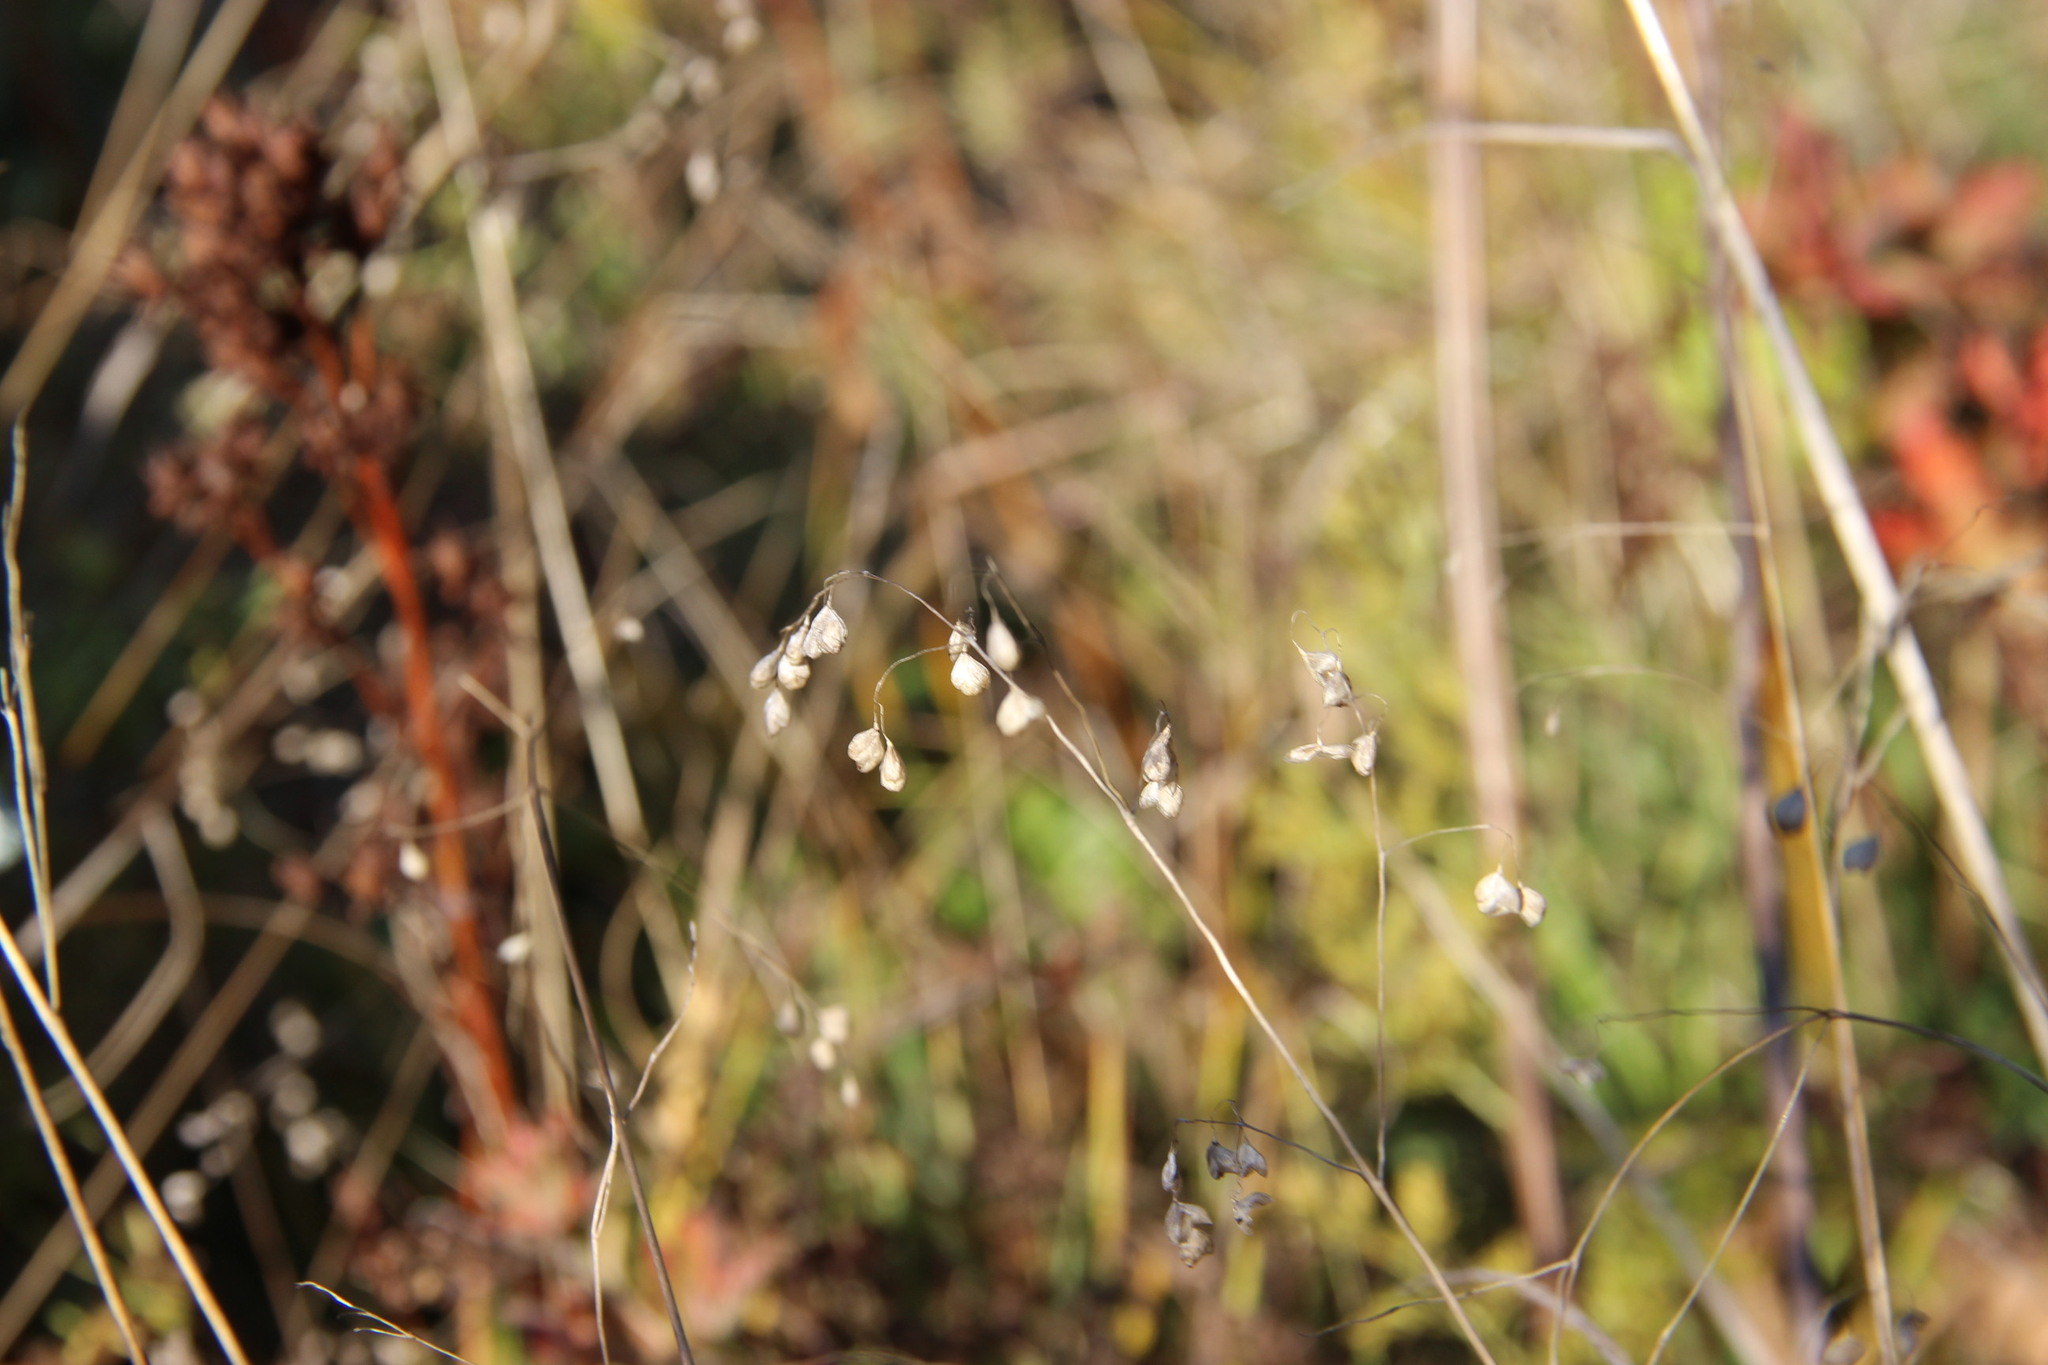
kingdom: Plantae
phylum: Tracheophyta
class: Liliopsida
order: Poales
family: Poaceae
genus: Briza
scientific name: Briza media
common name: Quaking grass
